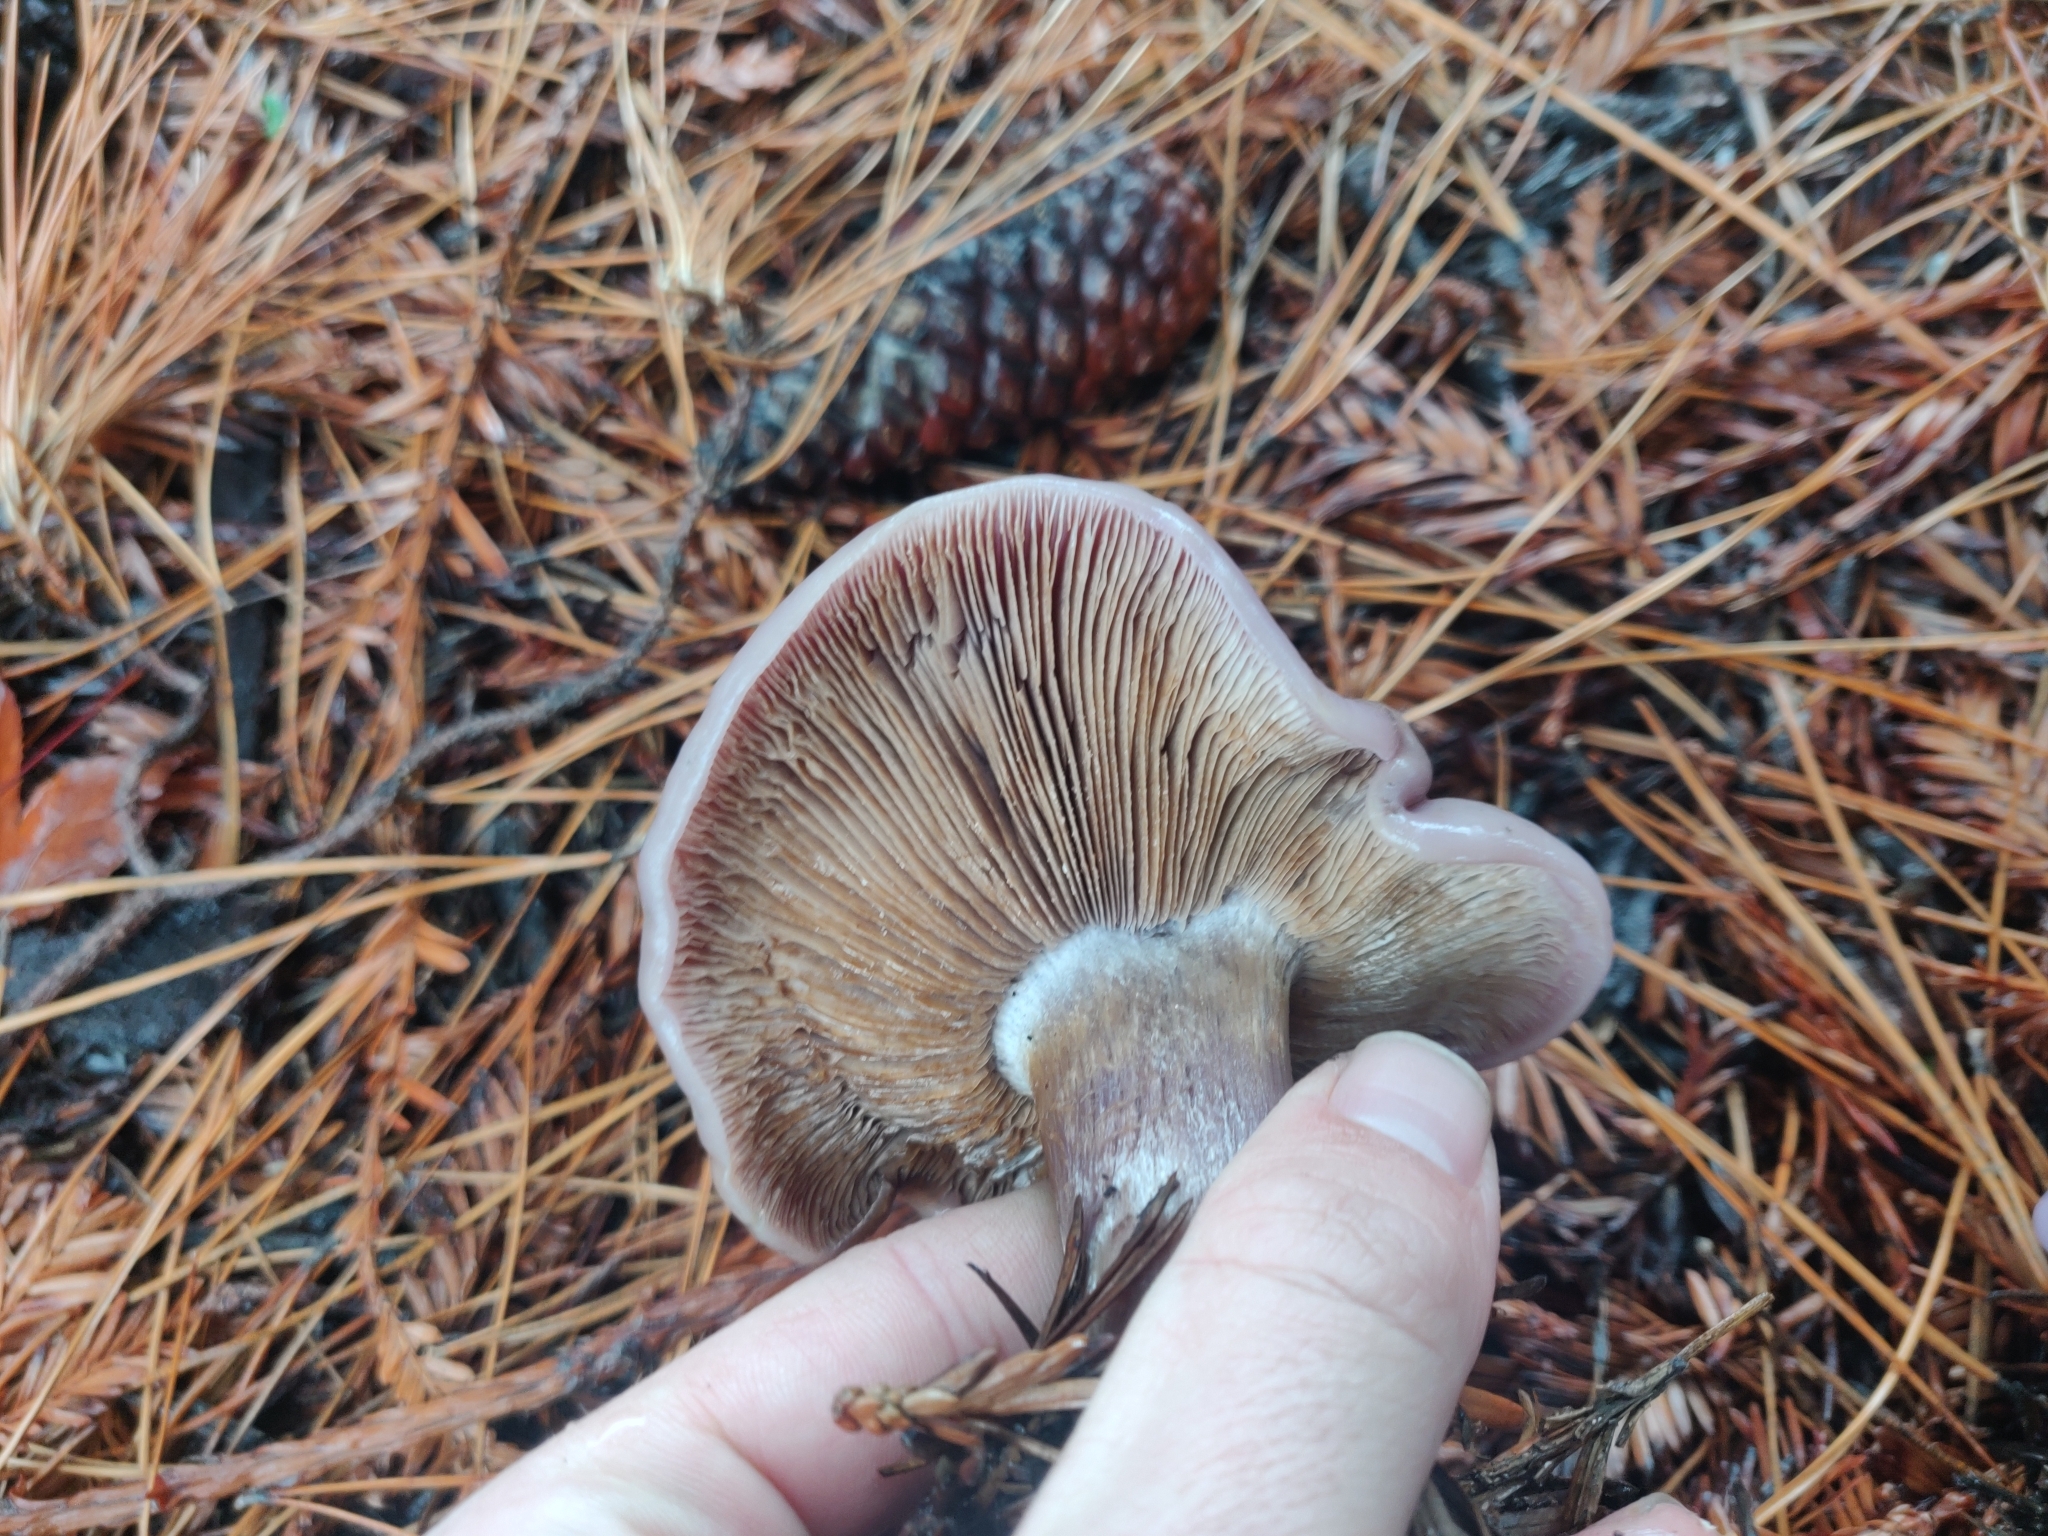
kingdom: Fungi
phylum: Basidiomycota
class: Agaricomycetes
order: Agaricales
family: Tricholomataceae
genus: Collybia
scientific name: Collybia
